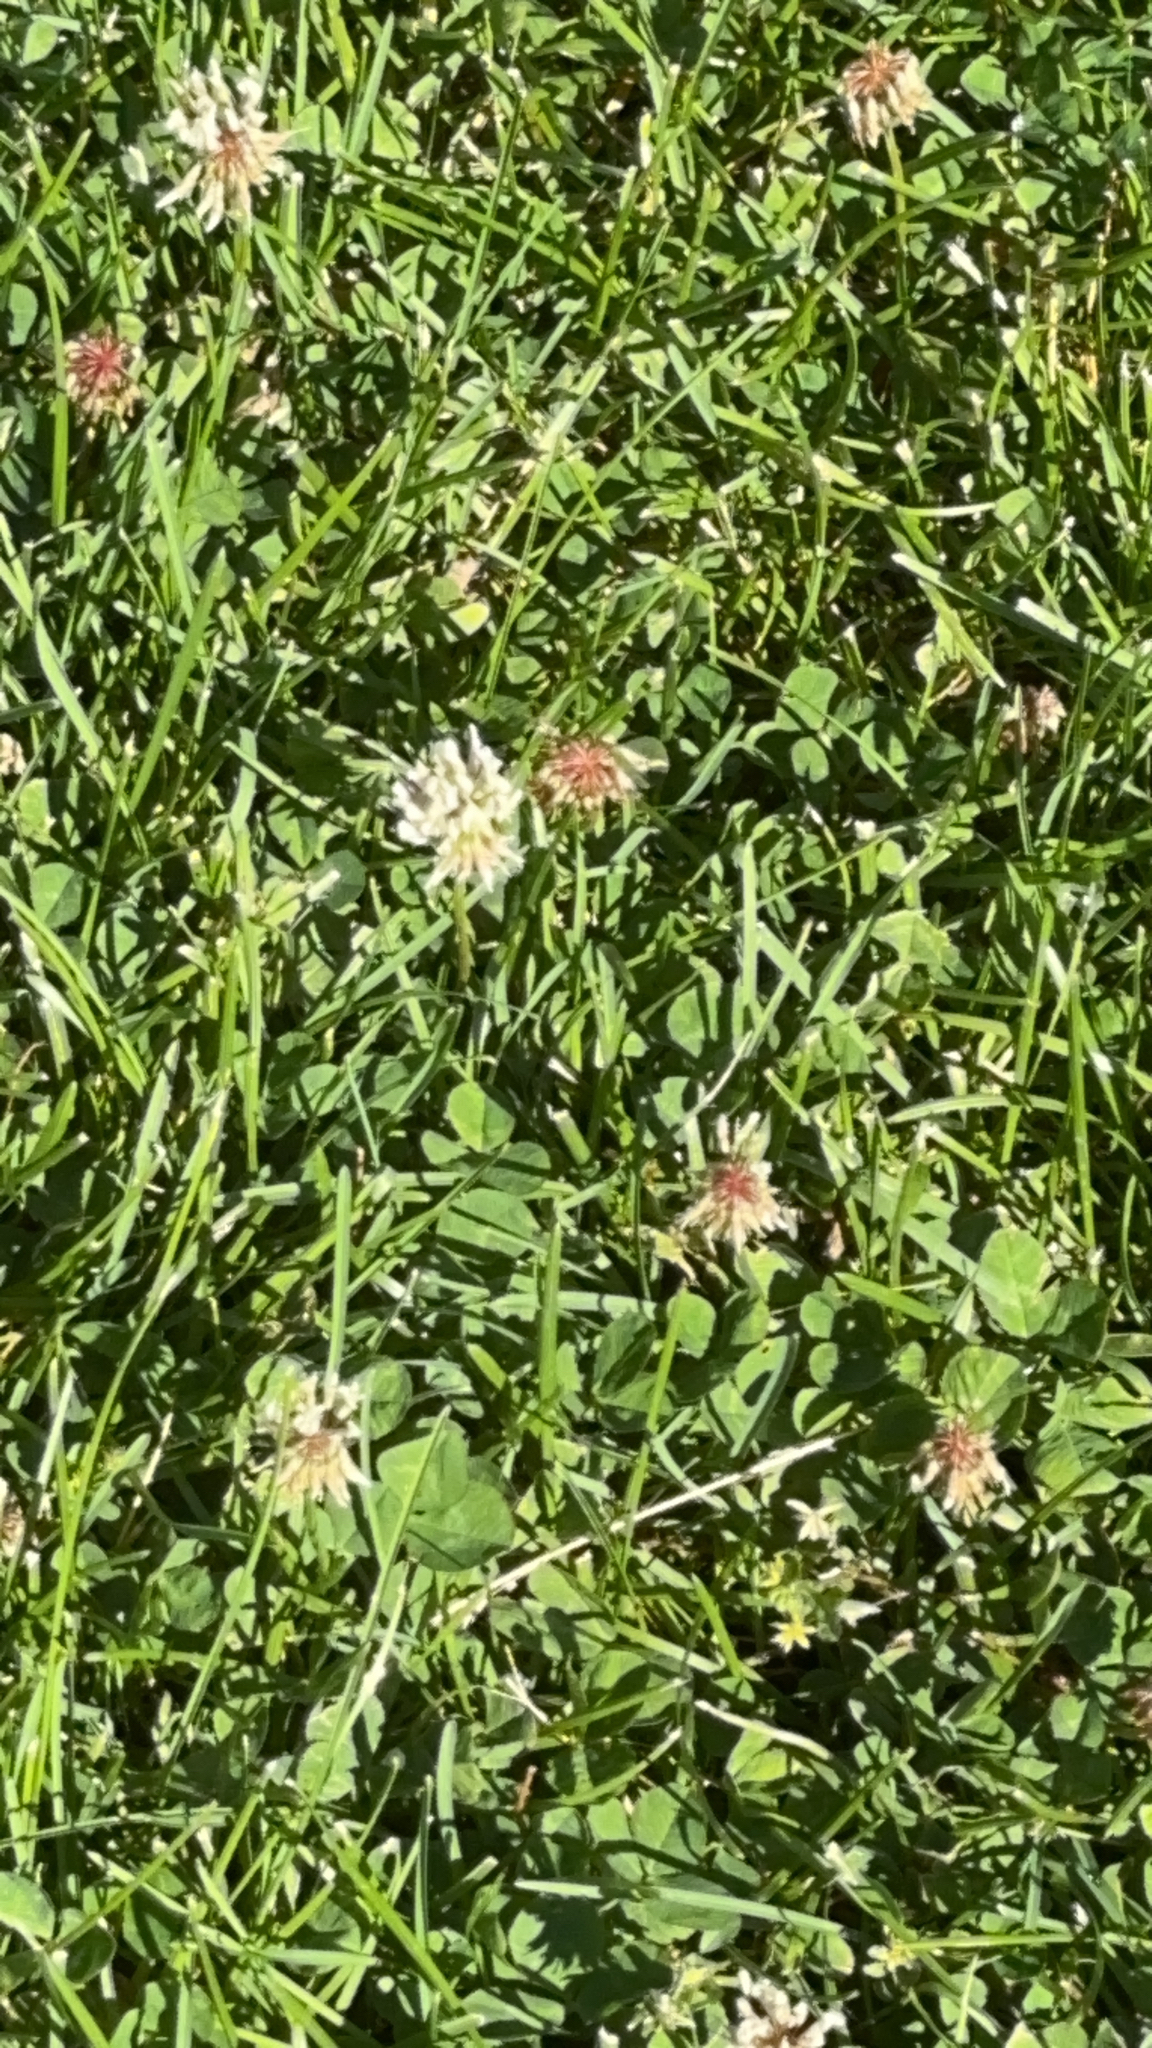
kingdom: Plantae
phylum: Tracheophyta
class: Magnoliopsida
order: Fabales
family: Fabaceae
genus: Trifolium
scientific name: Trifolium repens
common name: White clover
